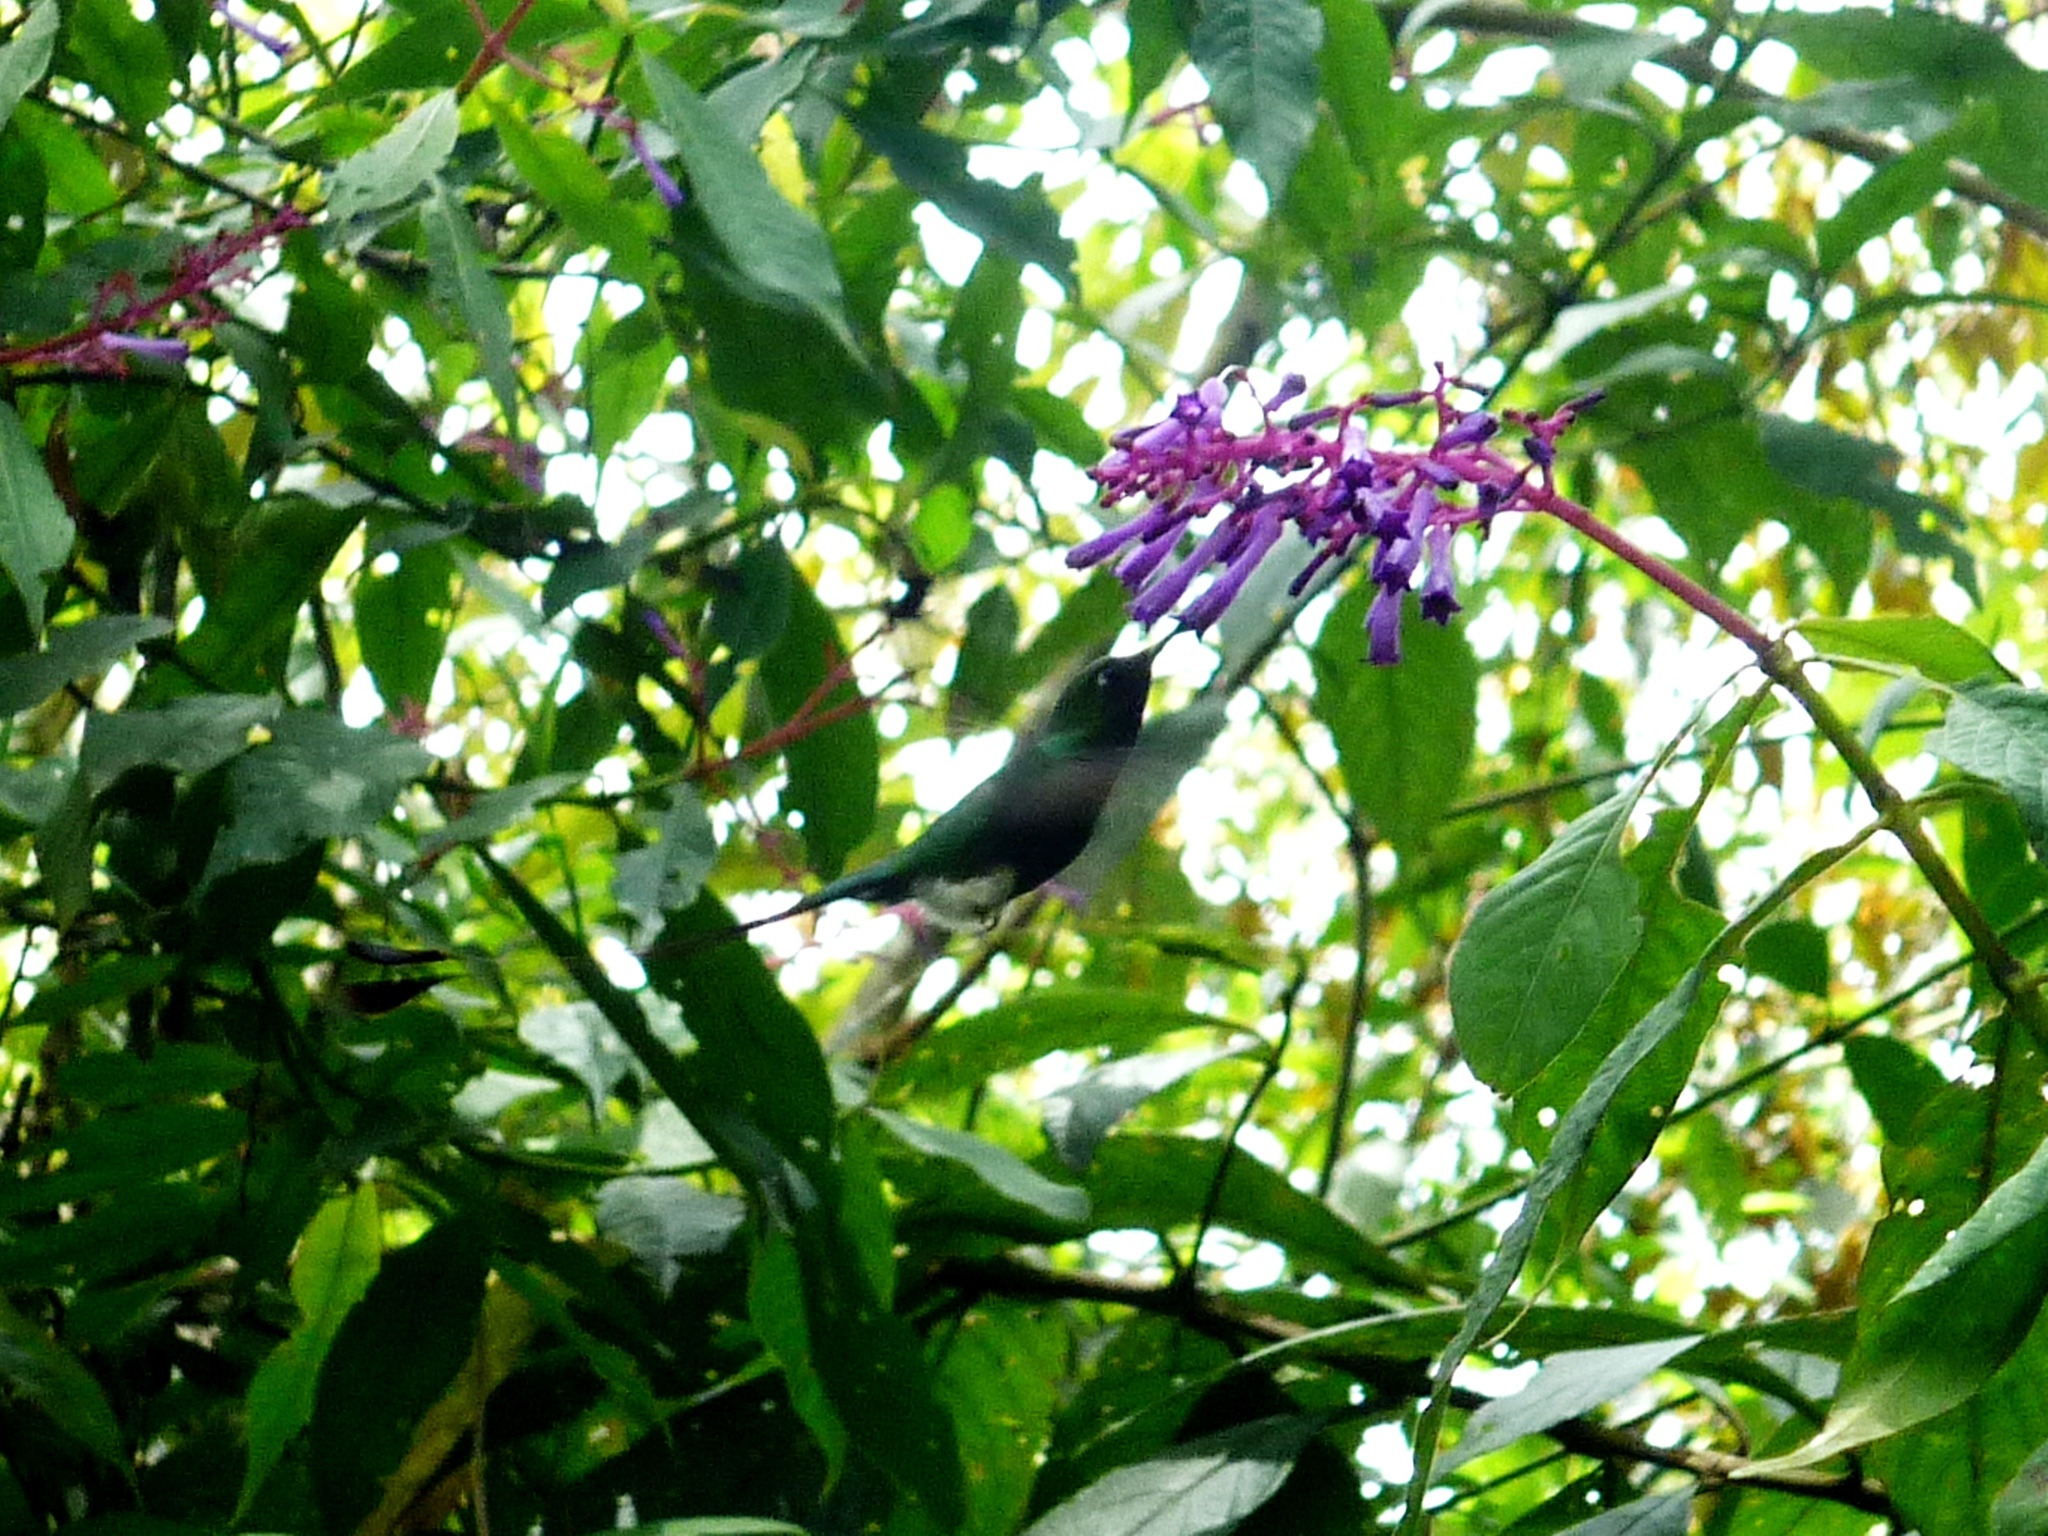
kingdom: Animalia
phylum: Chordata
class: Aves
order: Apodiformes
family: Trochilidae
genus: Ocreatus
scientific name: Ocreatus underwoodii
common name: Booted racket-tail
